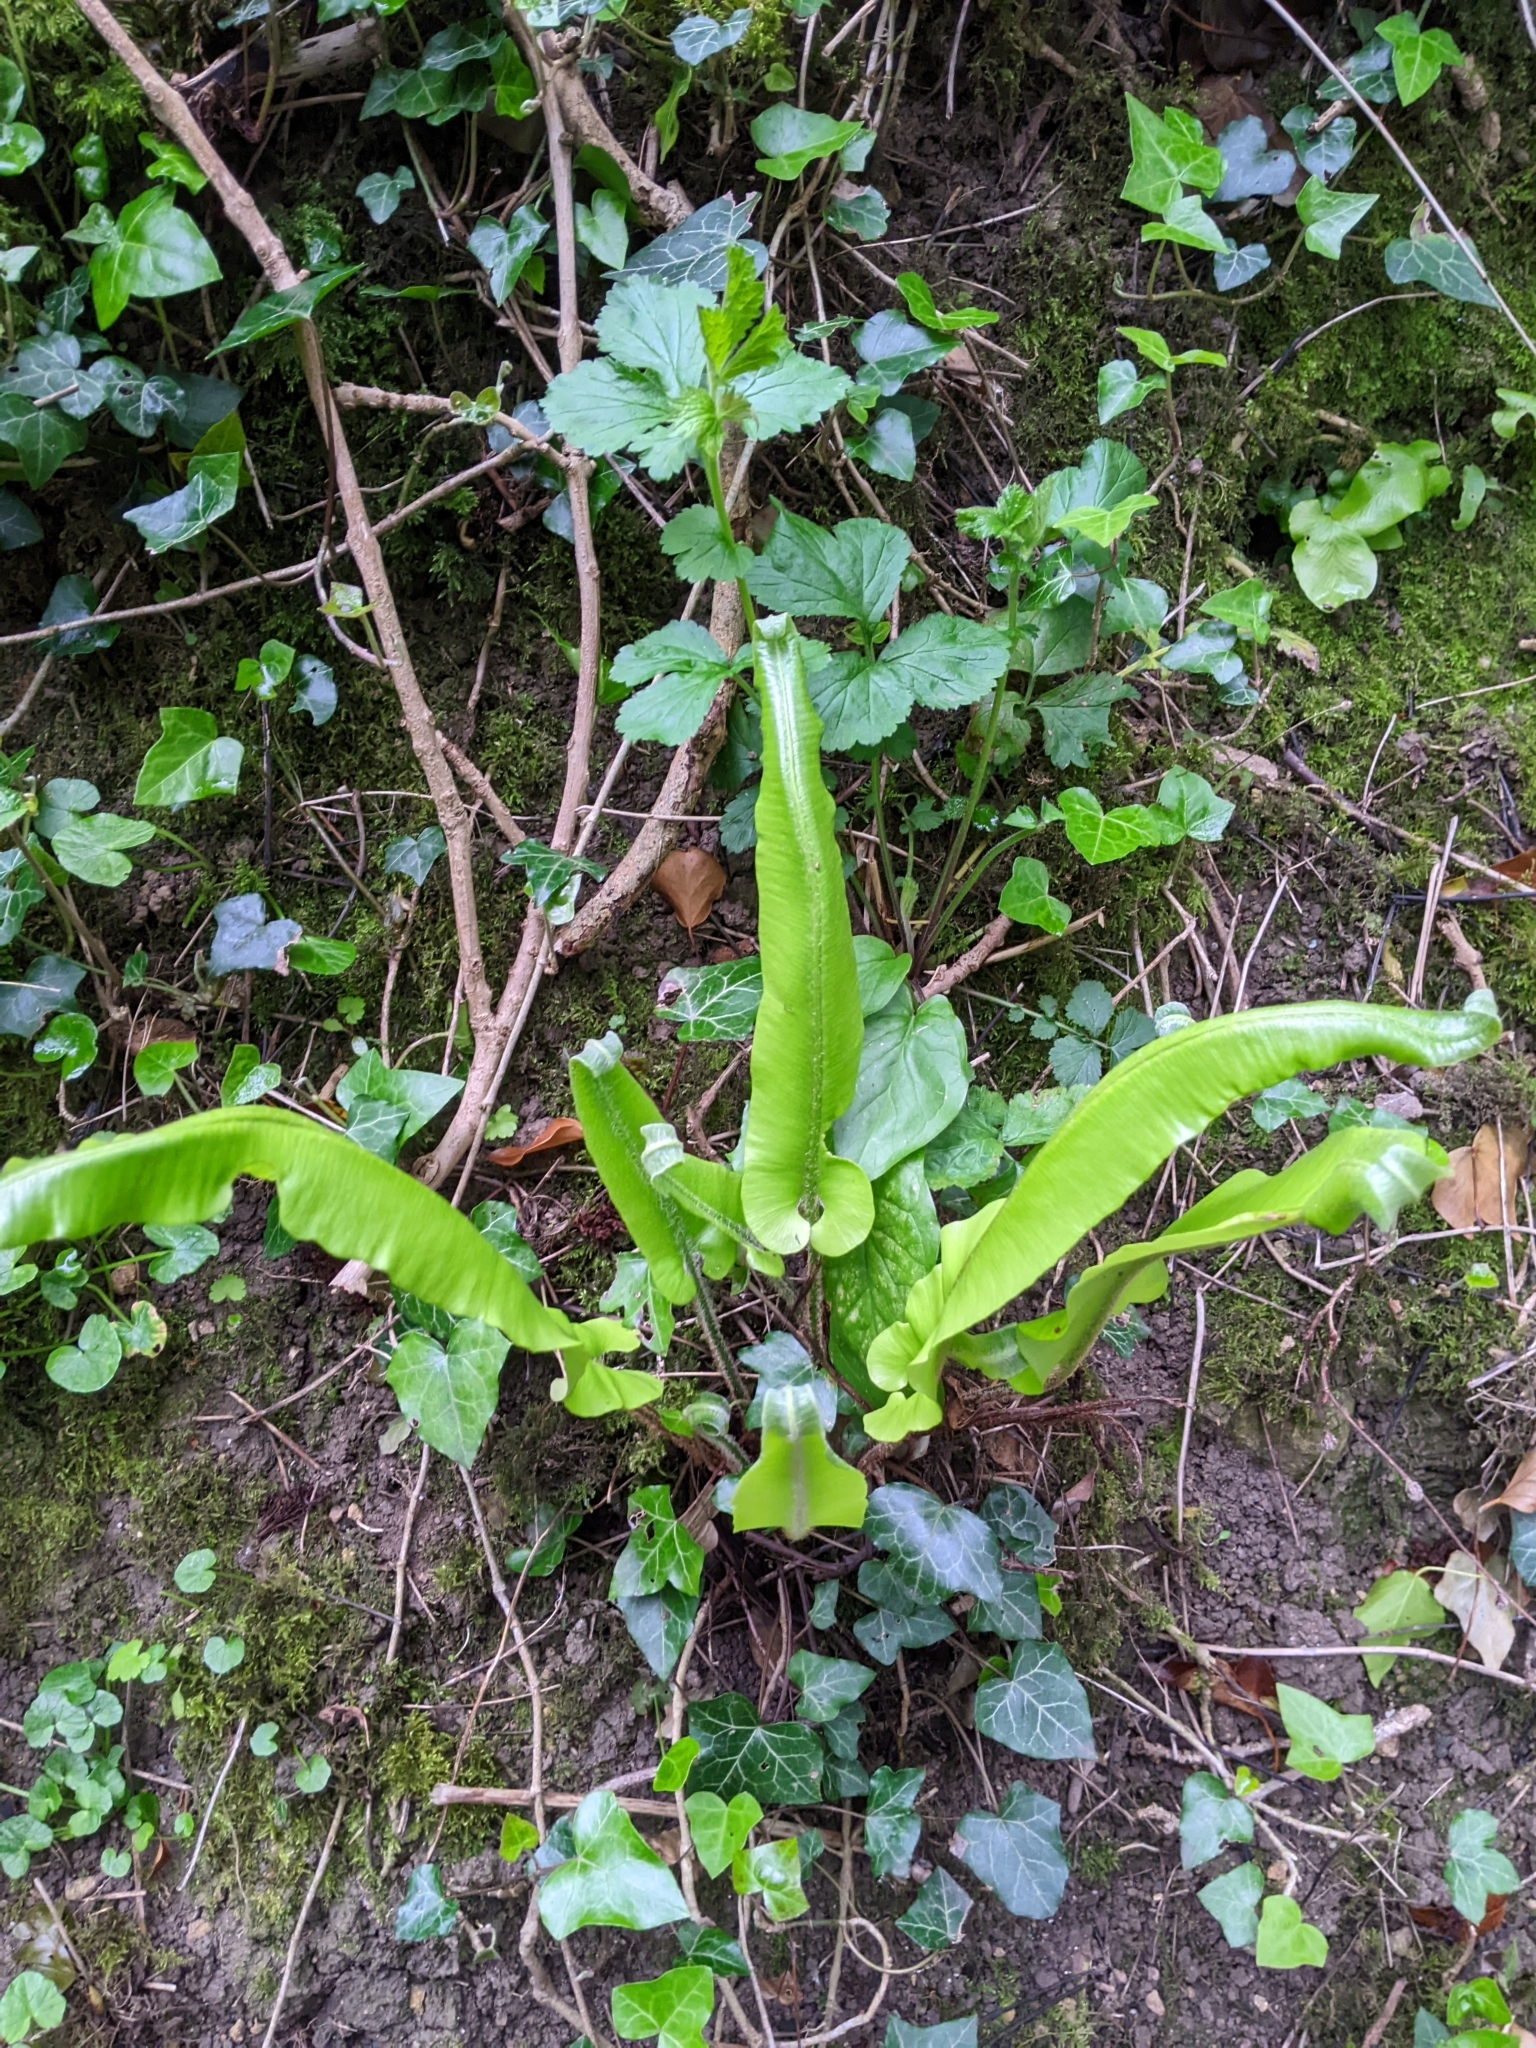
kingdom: Plantae
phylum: Tracheophyta
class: Polypodiopsida
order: Polypodiales
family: Aspleniaceae
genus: Asplenium
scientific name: Asplenium scolopendrium
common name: Hart's-tongue fern
